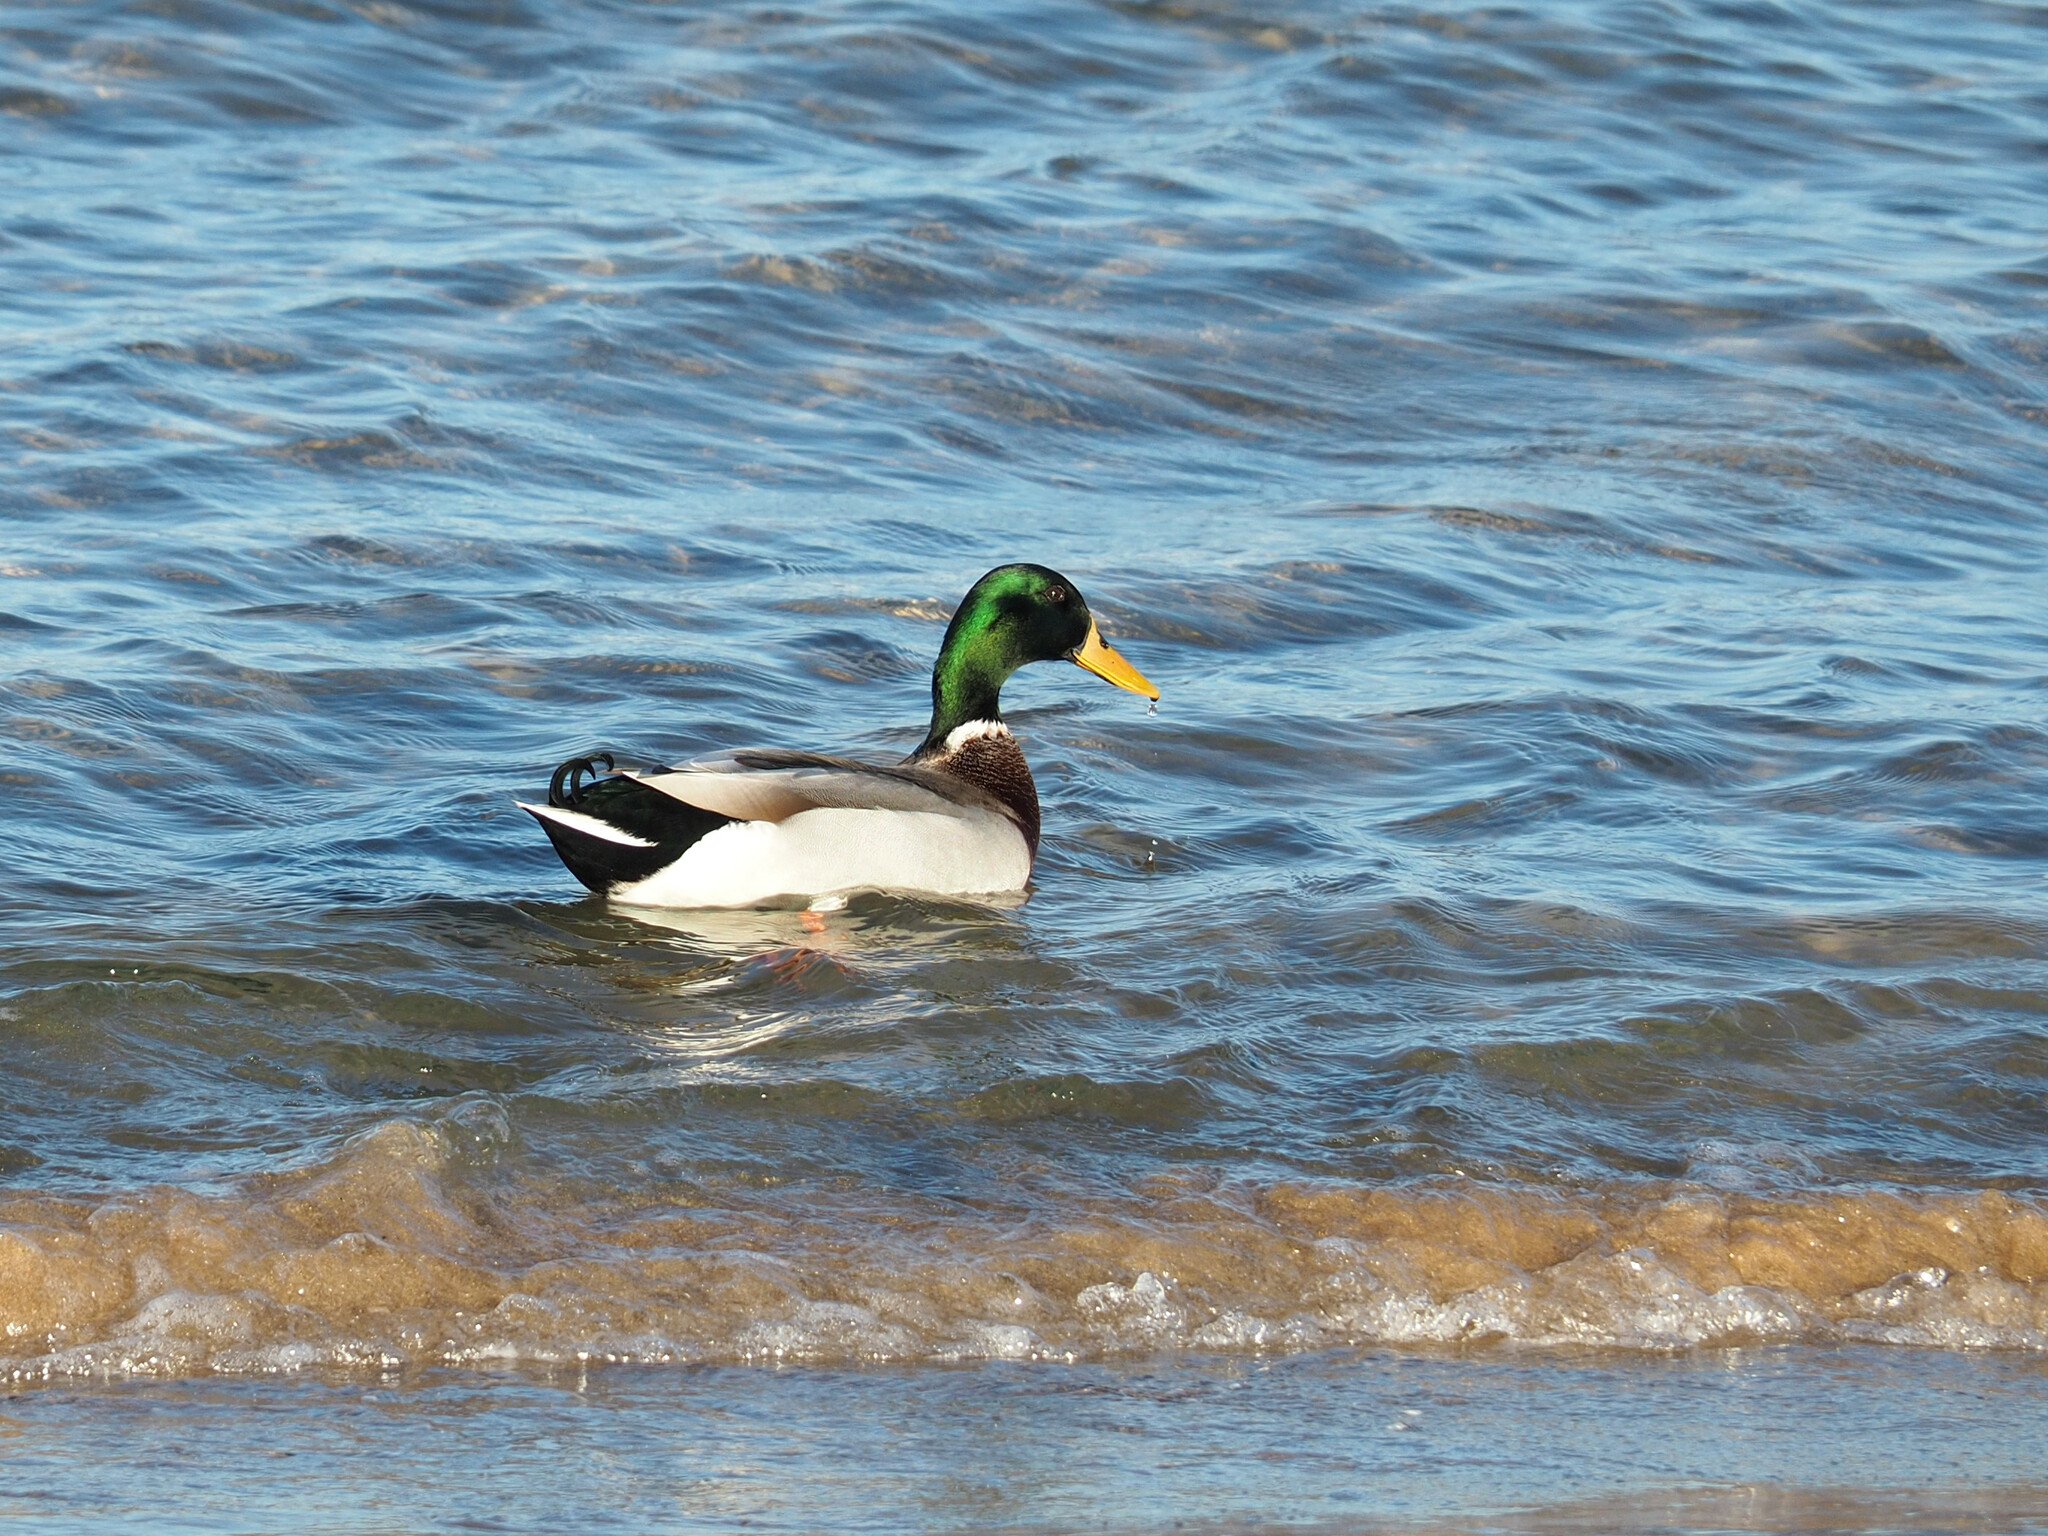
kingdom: Animalia
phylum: Chordata
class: Aves
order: Anseriformes
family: Anatidae
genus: Anas
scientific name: Anas platyrhynchos
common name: Mallard
